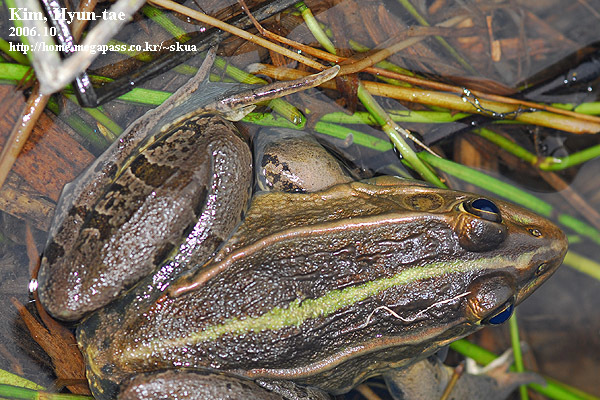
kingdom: Animalia
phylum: Chordata
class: Amphibia
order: Anura
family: Ranidae
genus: Pelophylax
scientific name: Pelophylax nigromaculatus
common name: Black-spotted pond frog
